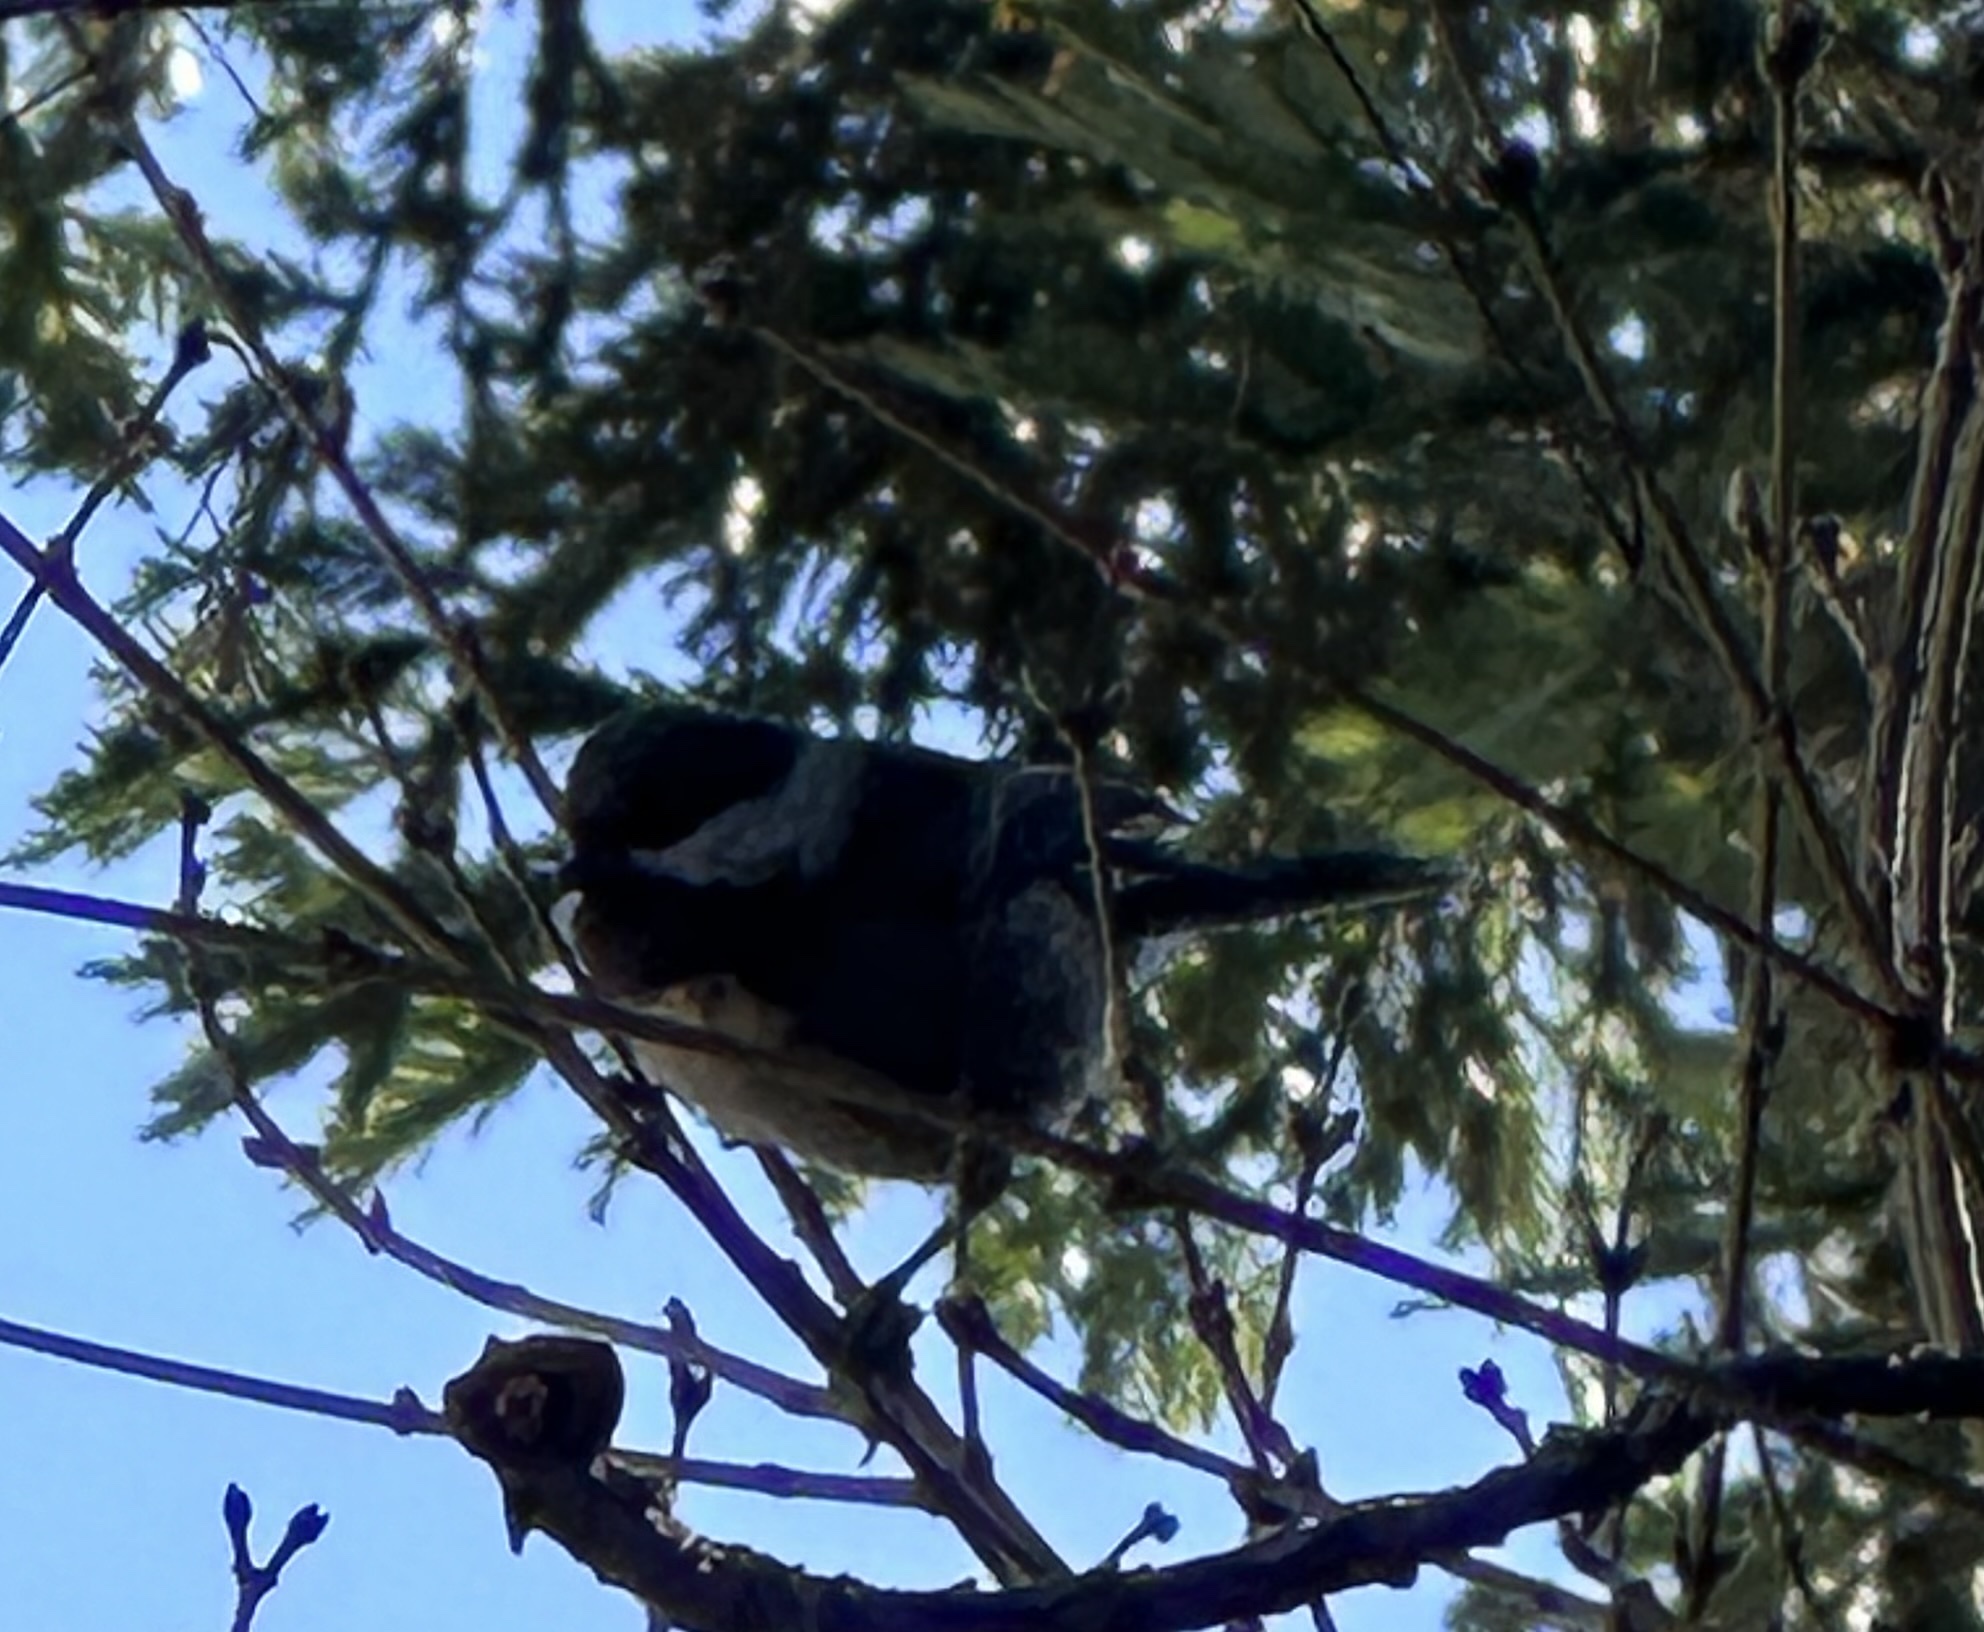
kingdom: Animalia
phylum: Chordata
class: Aves
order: Passeriformes
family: Paridae
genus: Poecile
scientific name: Poecile rufescens
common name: Chestnut-backed chickadee
